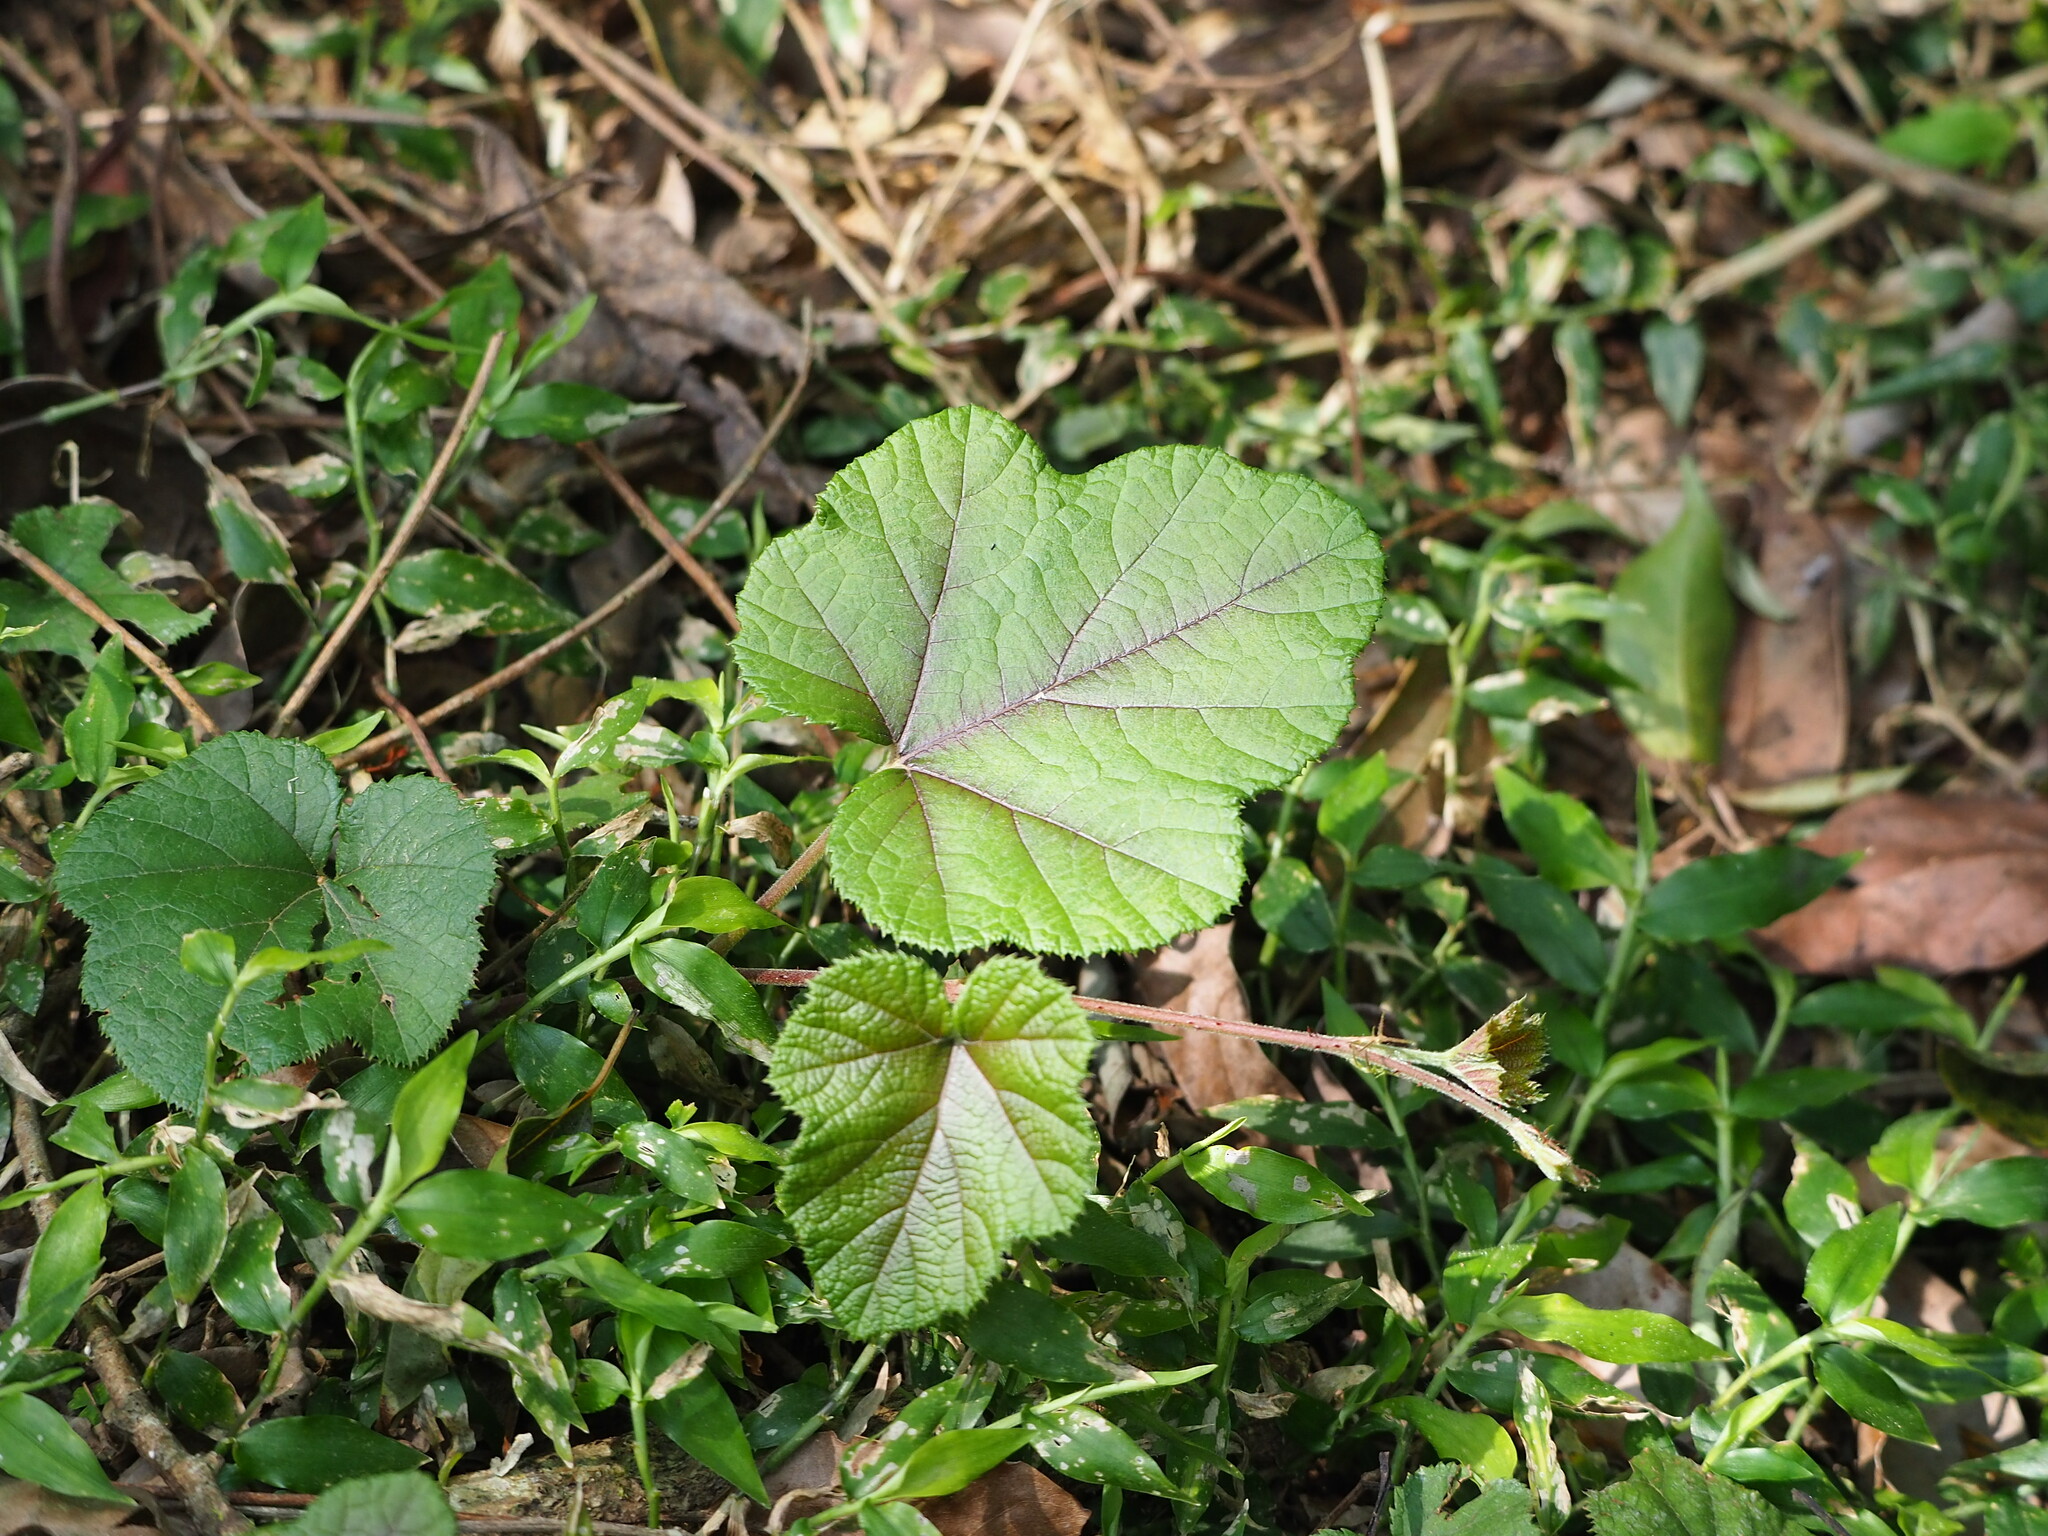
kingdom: Plantae
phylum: Tracheophyta
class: Magnoliopsida
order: Rosales
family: Rosaceae
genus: Rubus
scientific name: Rubus buergeri
